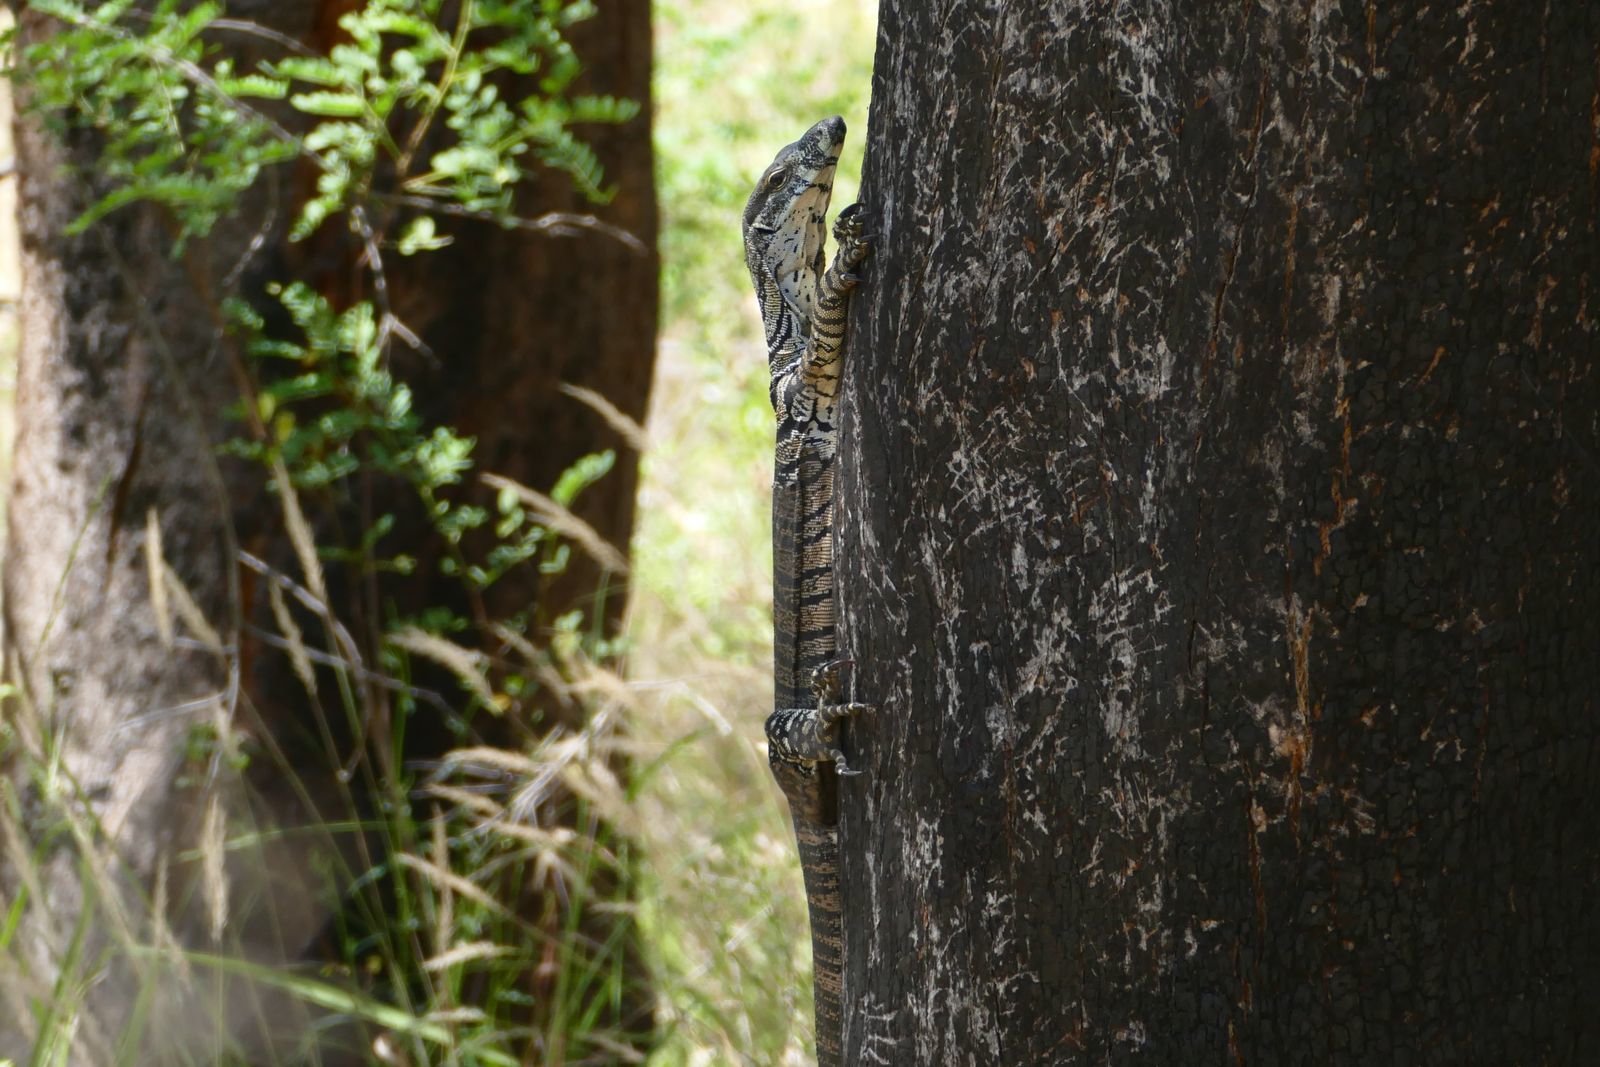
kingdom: Animalia
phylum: Chordata
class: Squamata
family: Varanidae
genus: Varanus
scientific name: Varanus varius
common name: Lace monitor
